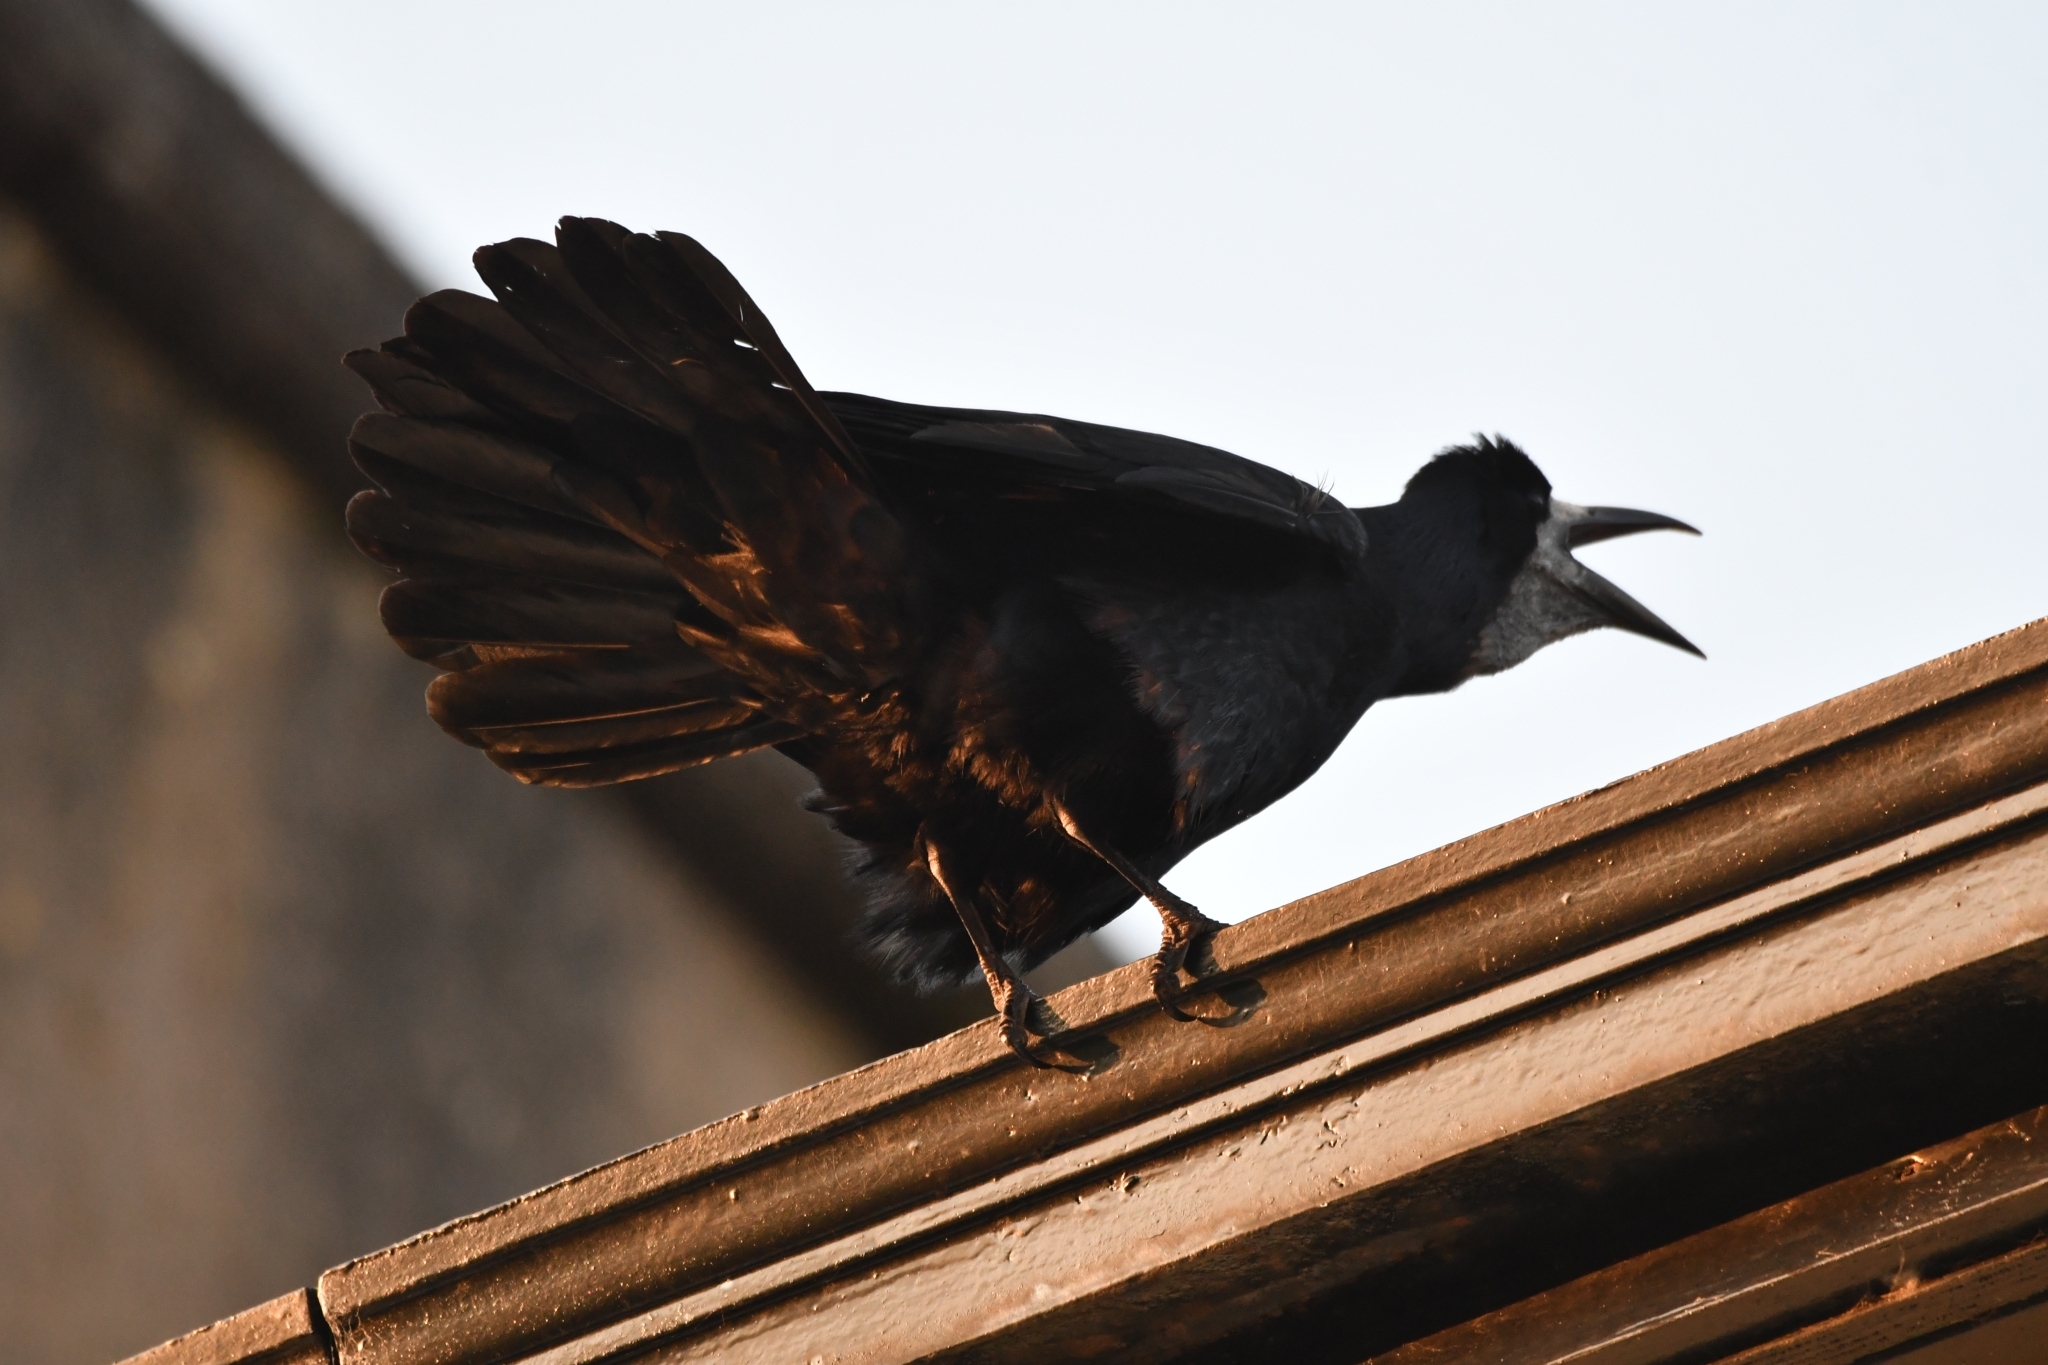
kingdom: Animalia
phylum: Chordata
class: Aves
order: Passeriformes
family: Corvidae
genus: Corvus
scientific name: Corvus frugilegus
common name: Rook
